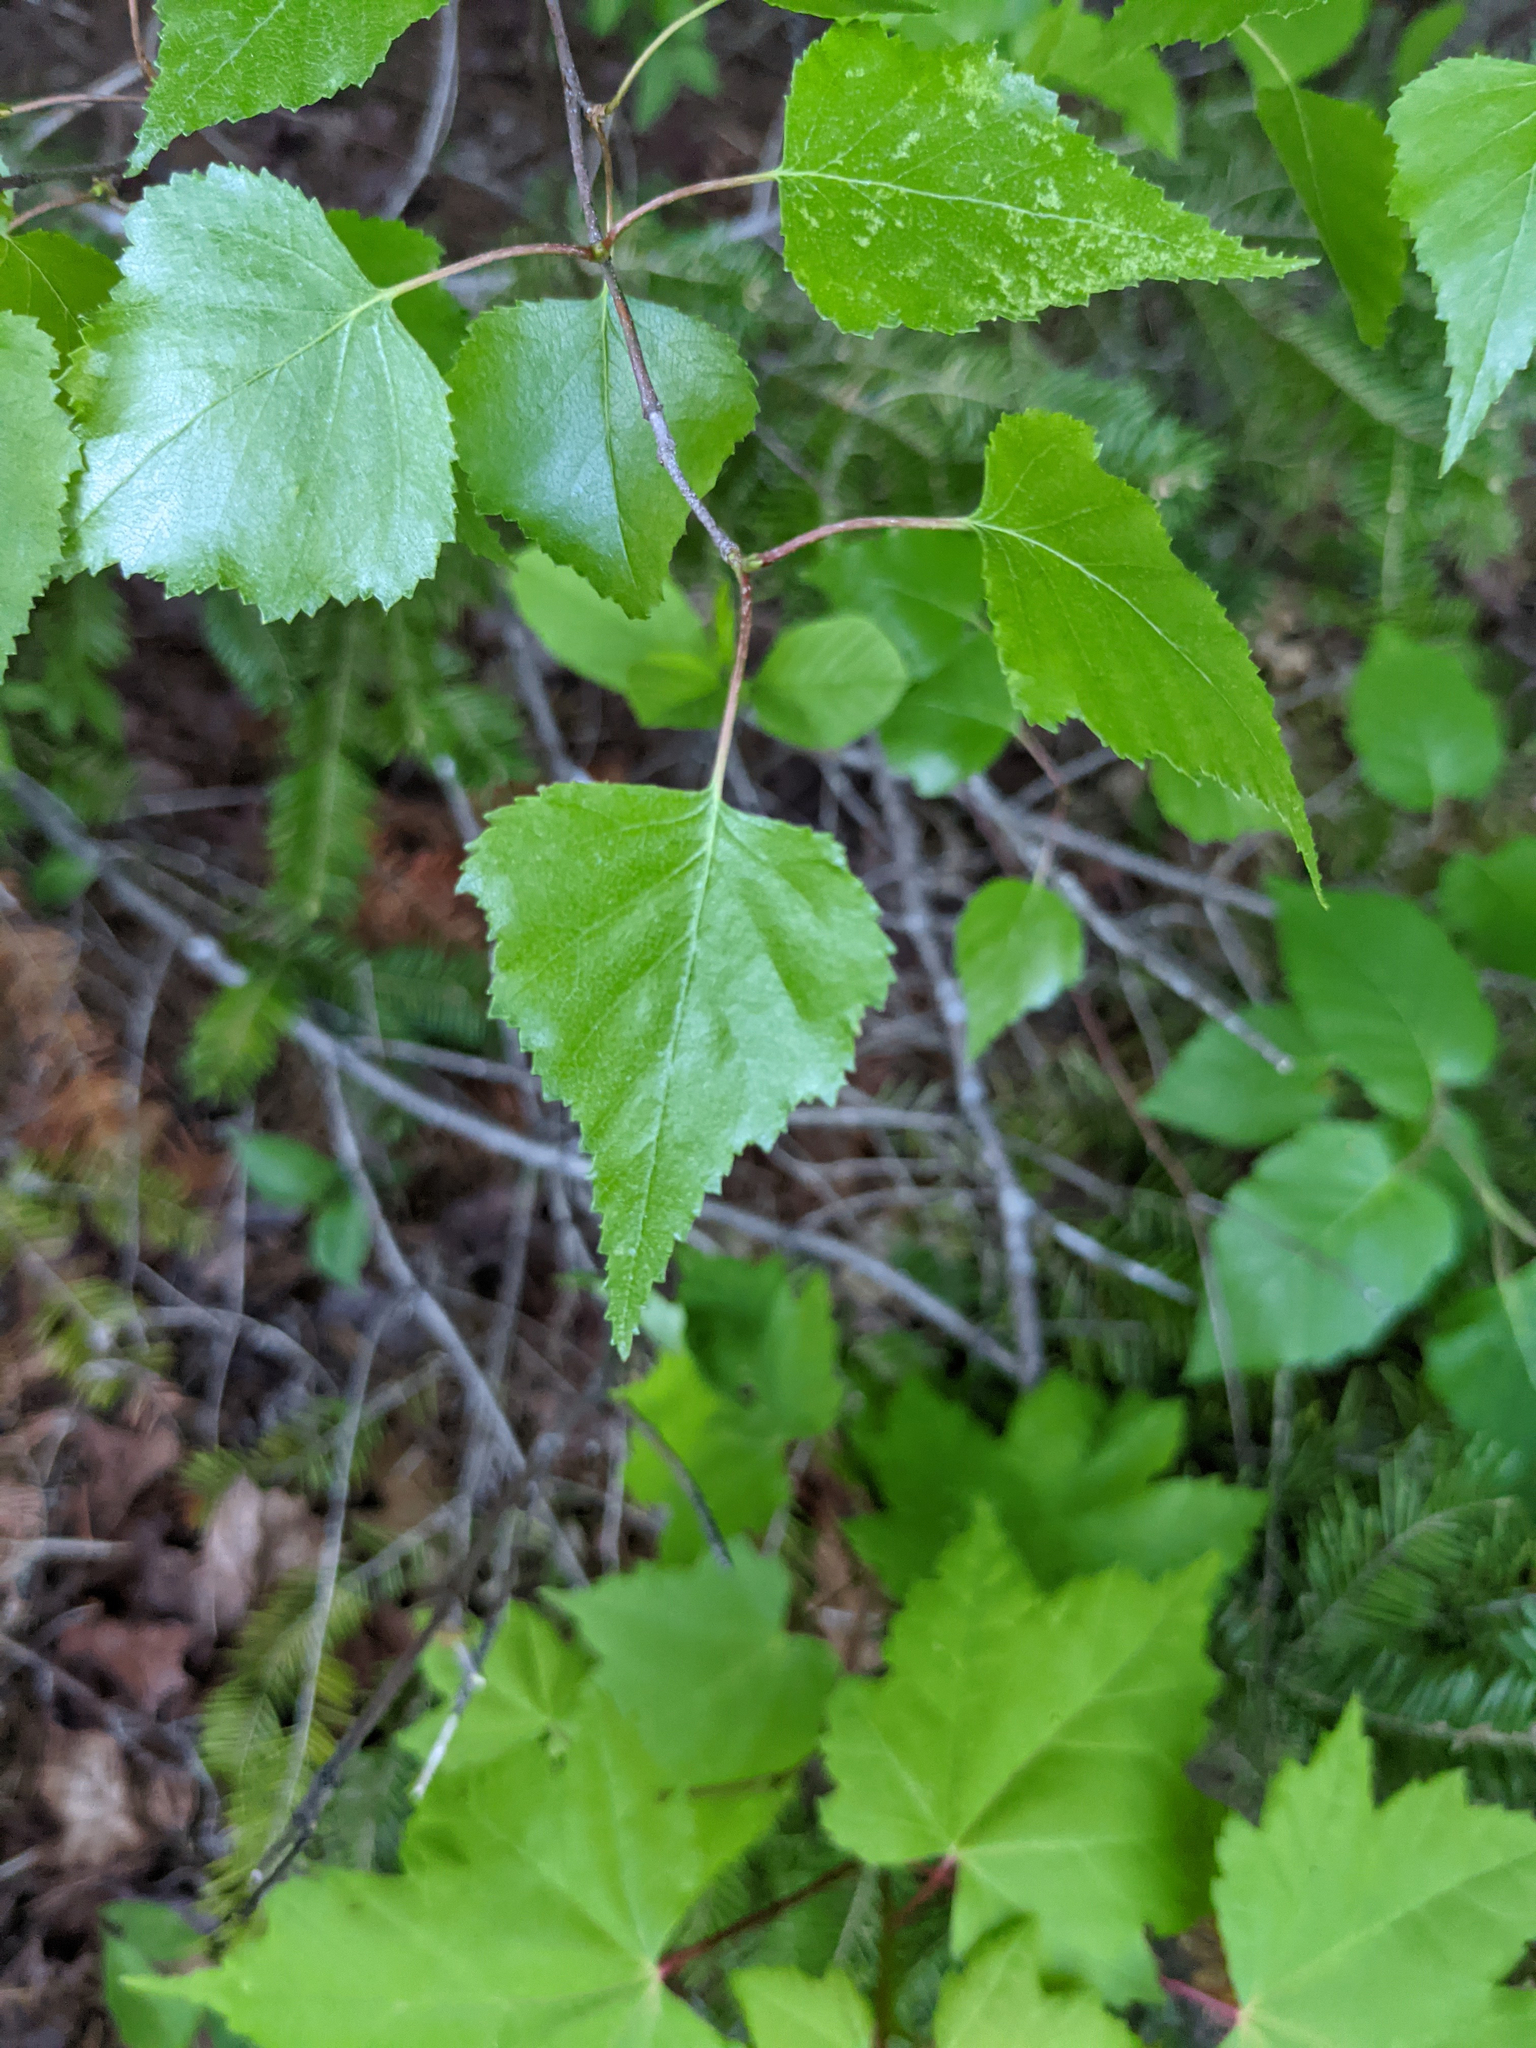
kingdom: Plantae
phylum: Tracheophyta
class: Magnoliopsida
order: Fagales
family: Betulaceae
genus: Betula
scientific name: Betula populifolia
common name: Fire birch
